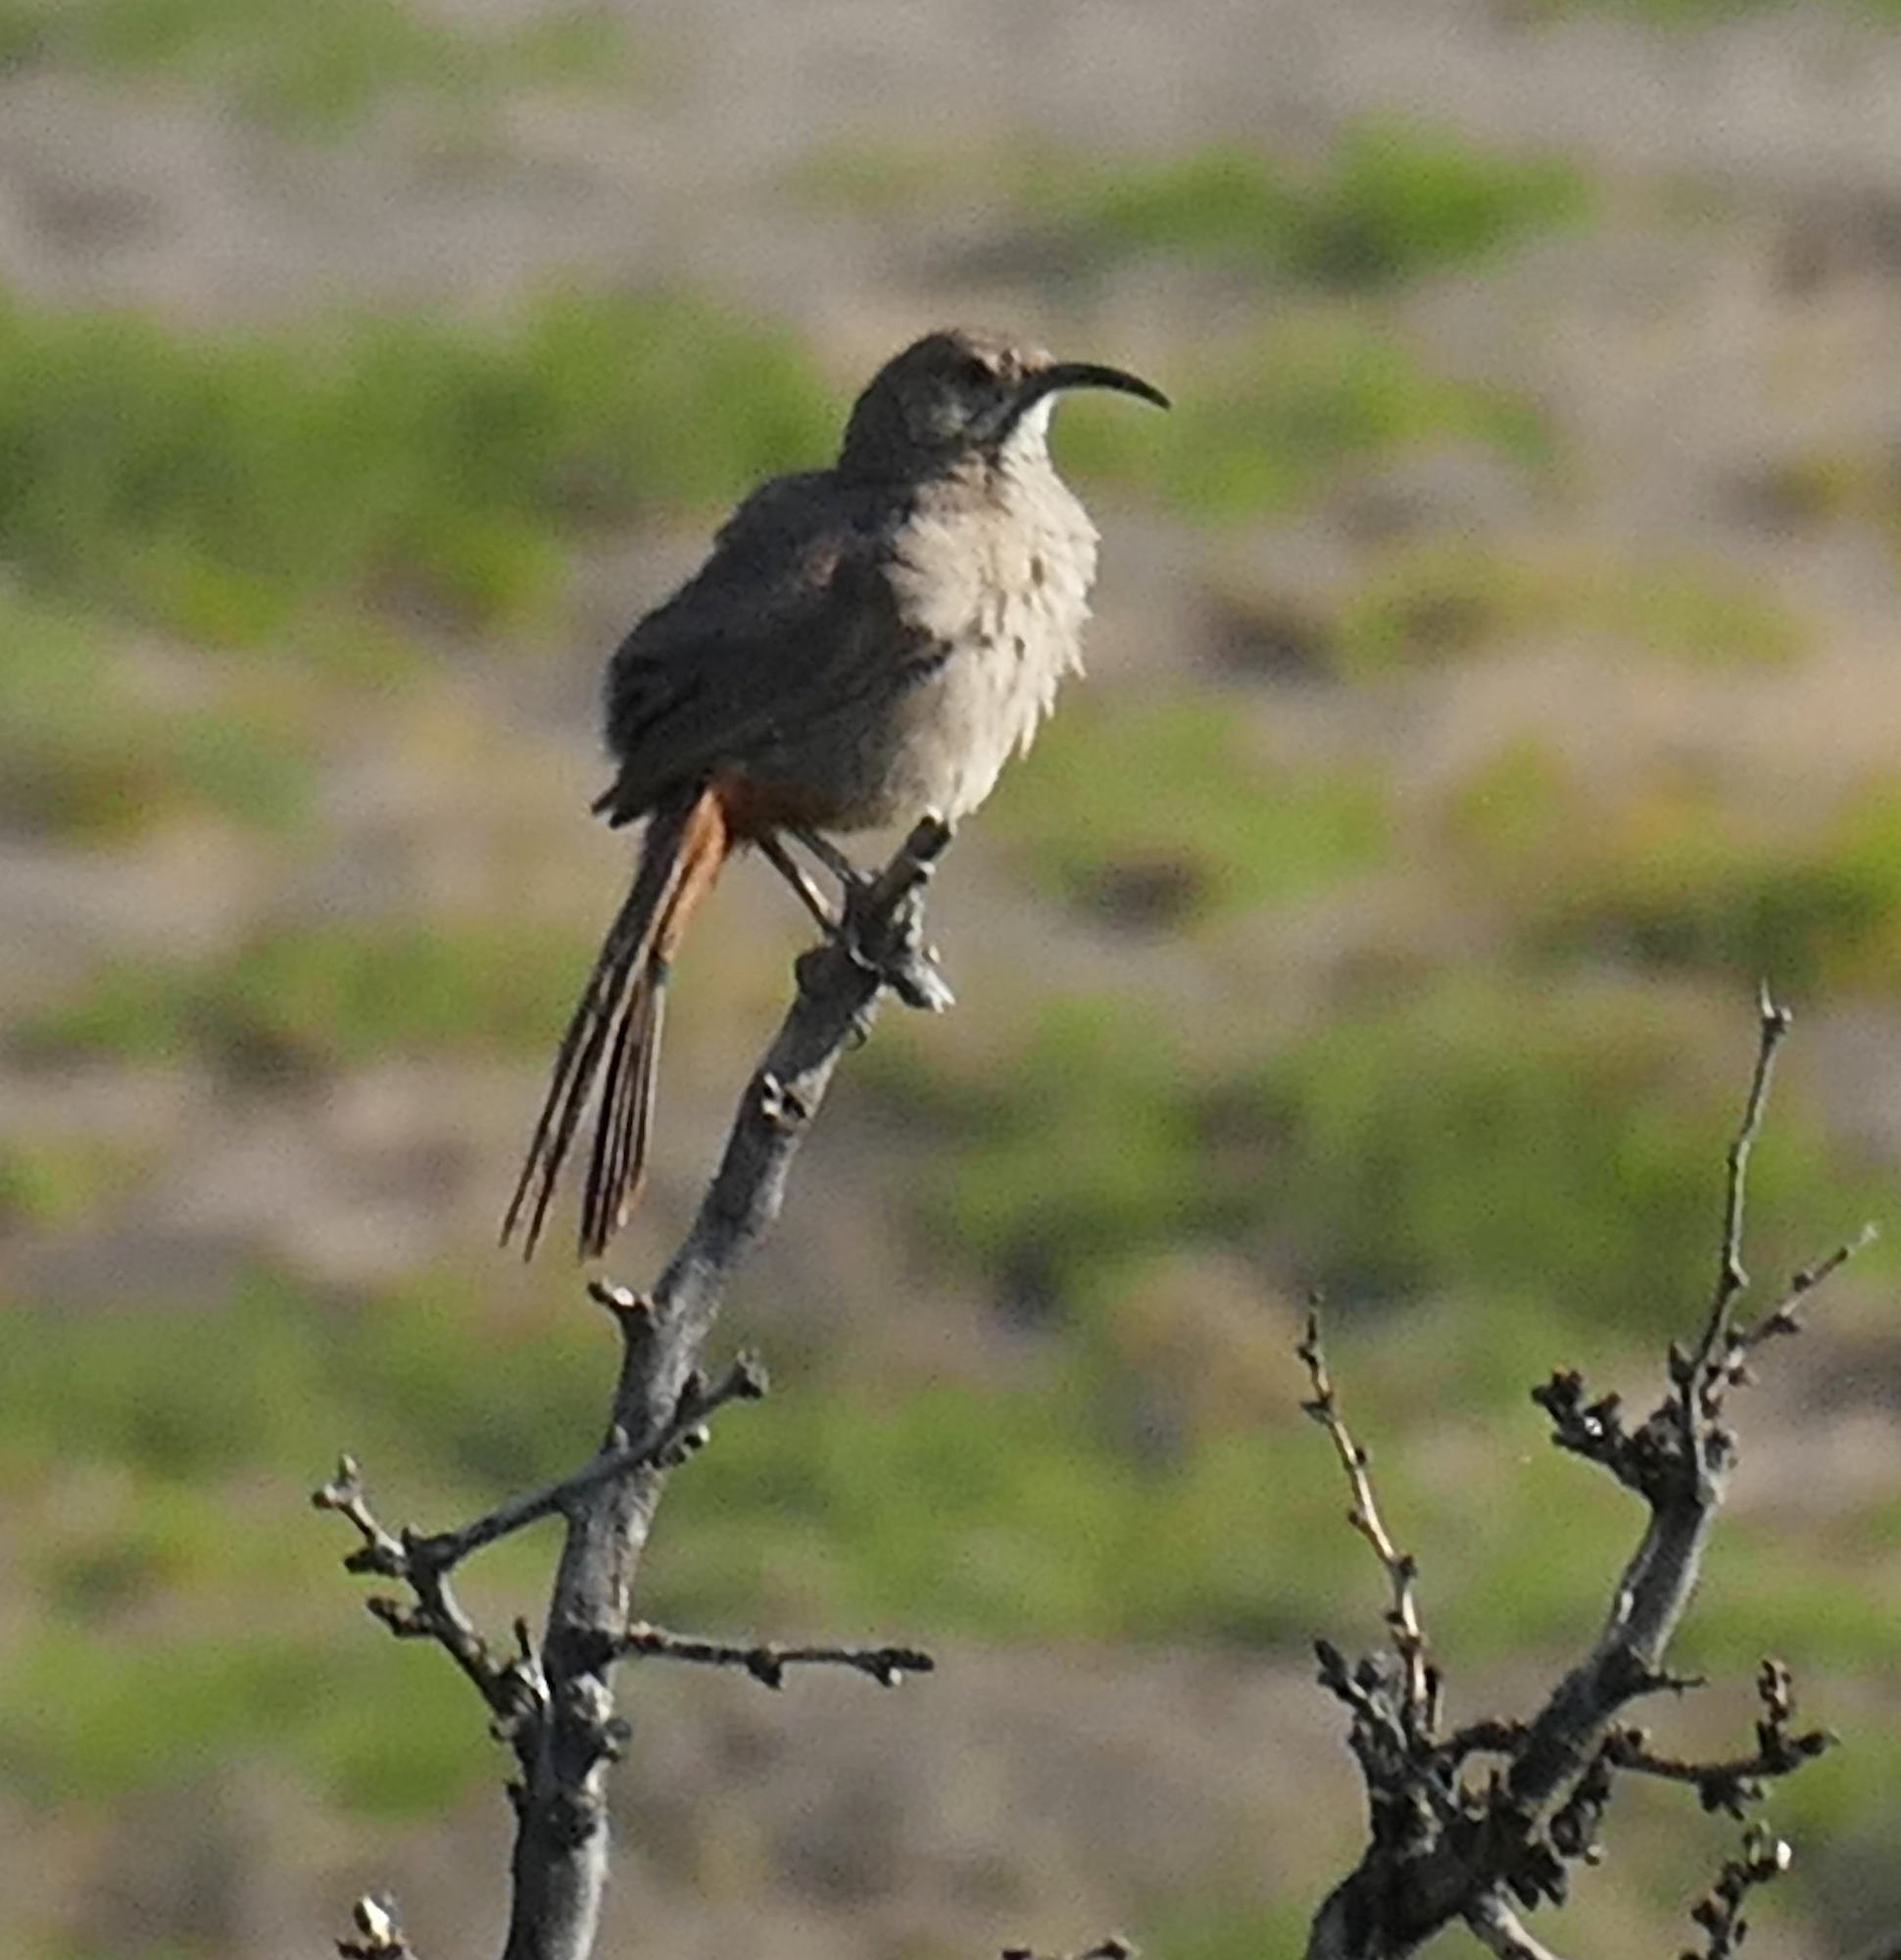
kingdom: Animalia
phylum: Chordata
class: Aves
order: Passeriformes
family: Mimidae
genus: Toxostoma
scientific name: Toxostoma crissale
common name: Crissal thrasher
